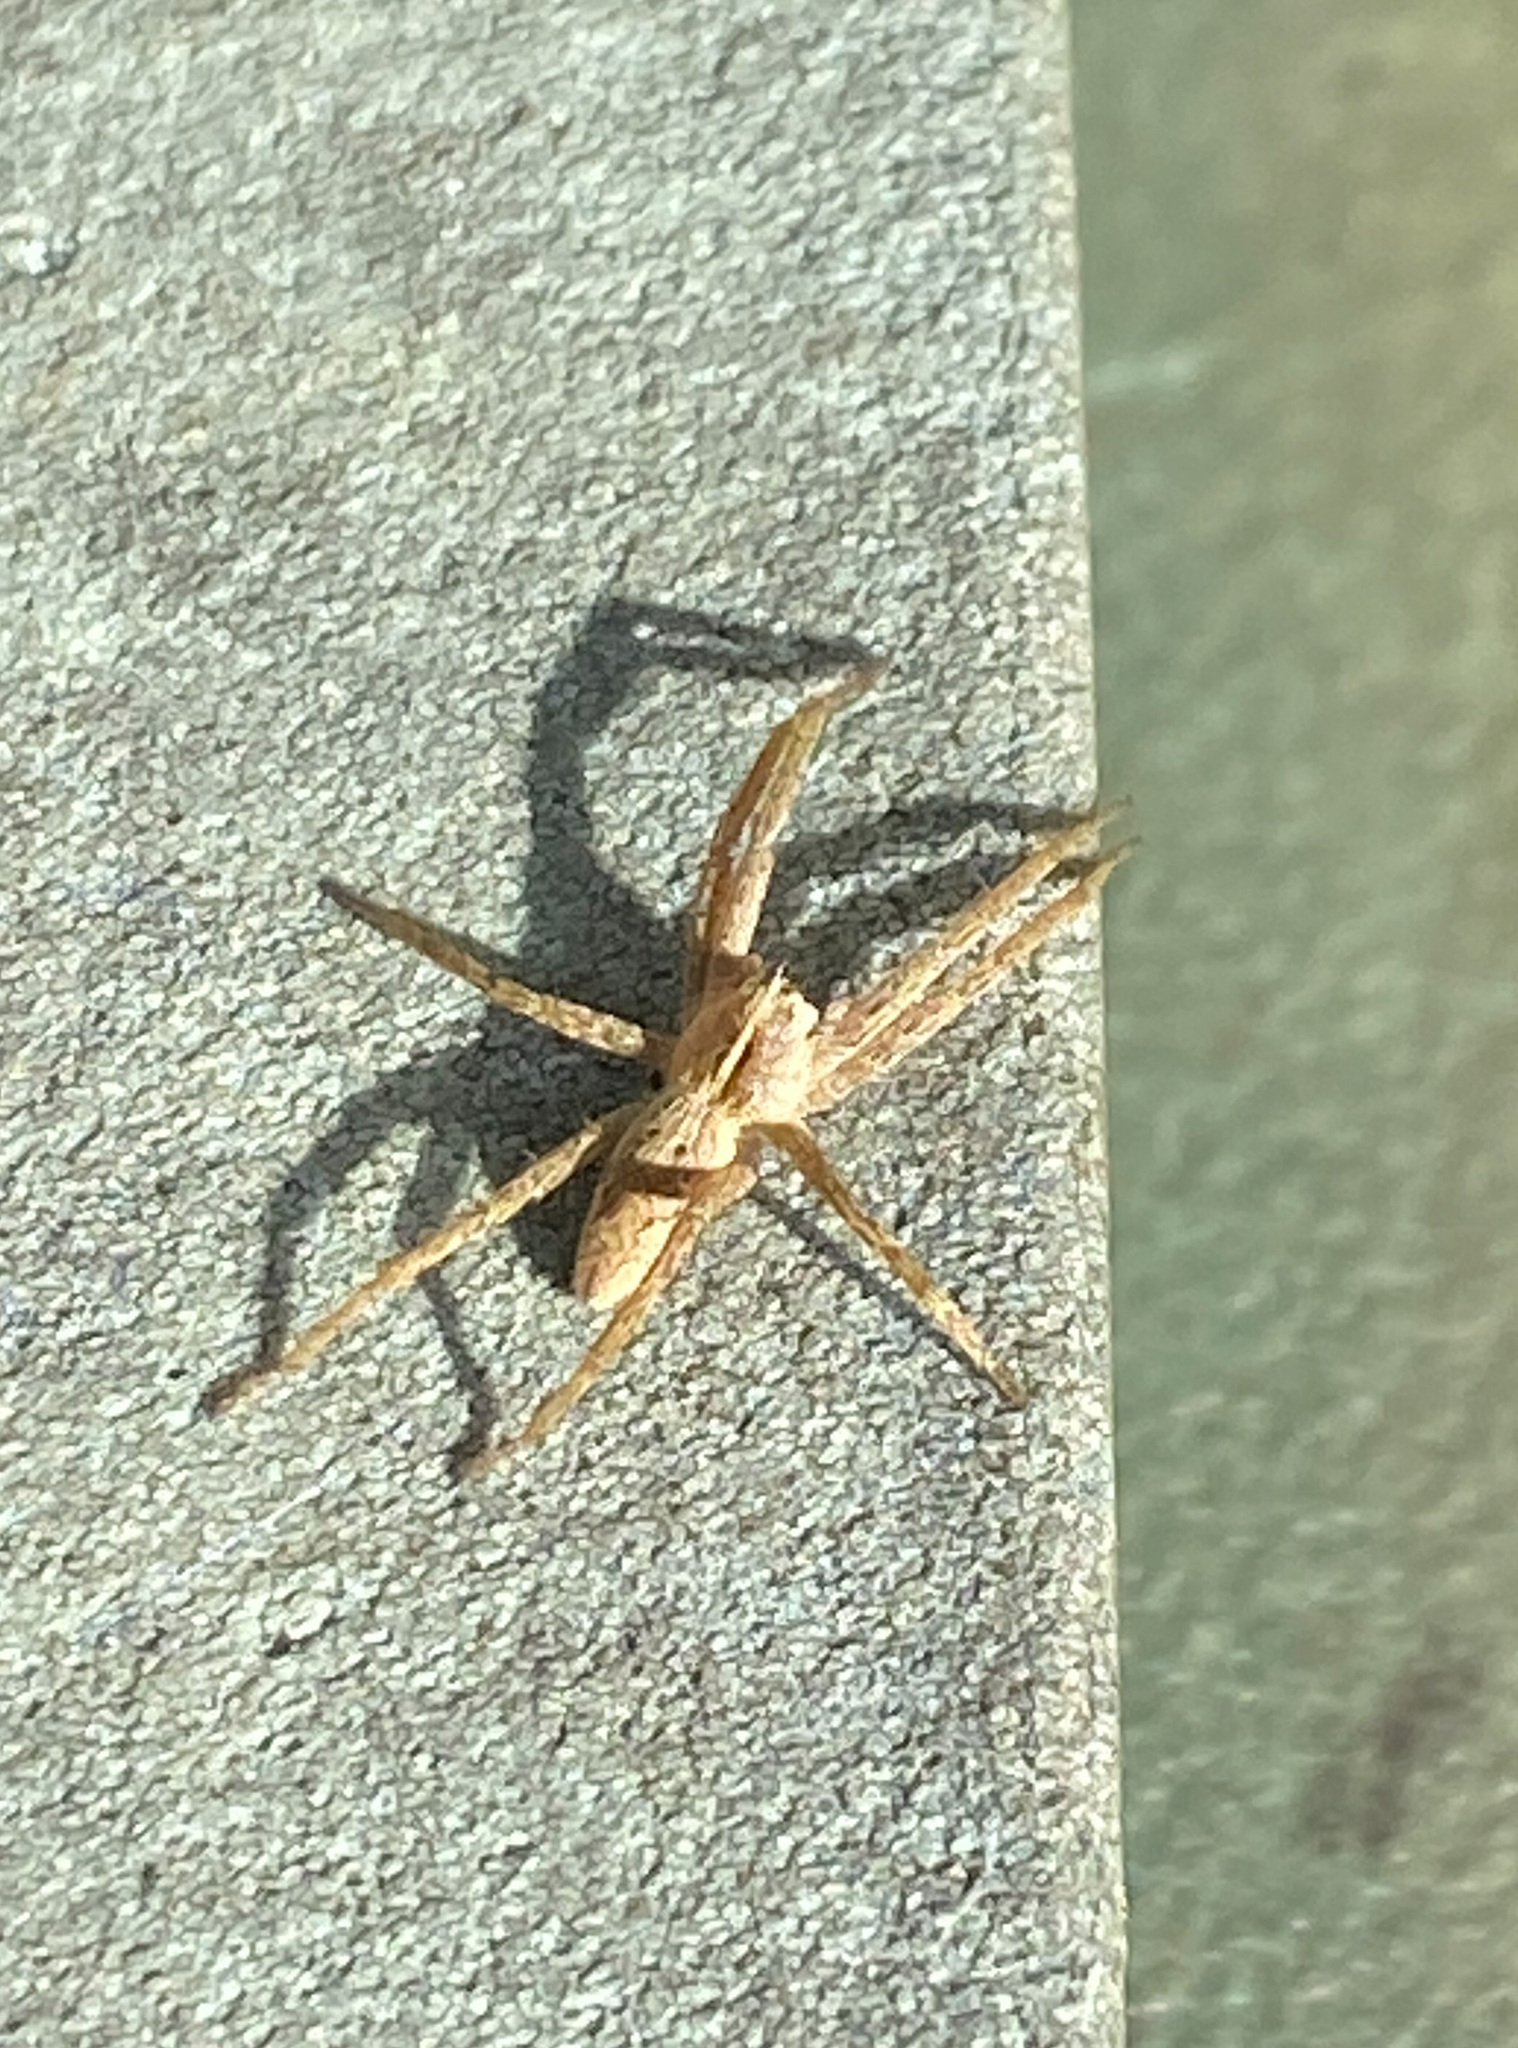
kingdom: Animalia
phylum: Arthropoda
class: Arachnida
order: Araneae
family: Pisauridae
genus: Pisaura
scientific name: Pisaura mirabilis
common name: Tent spider
